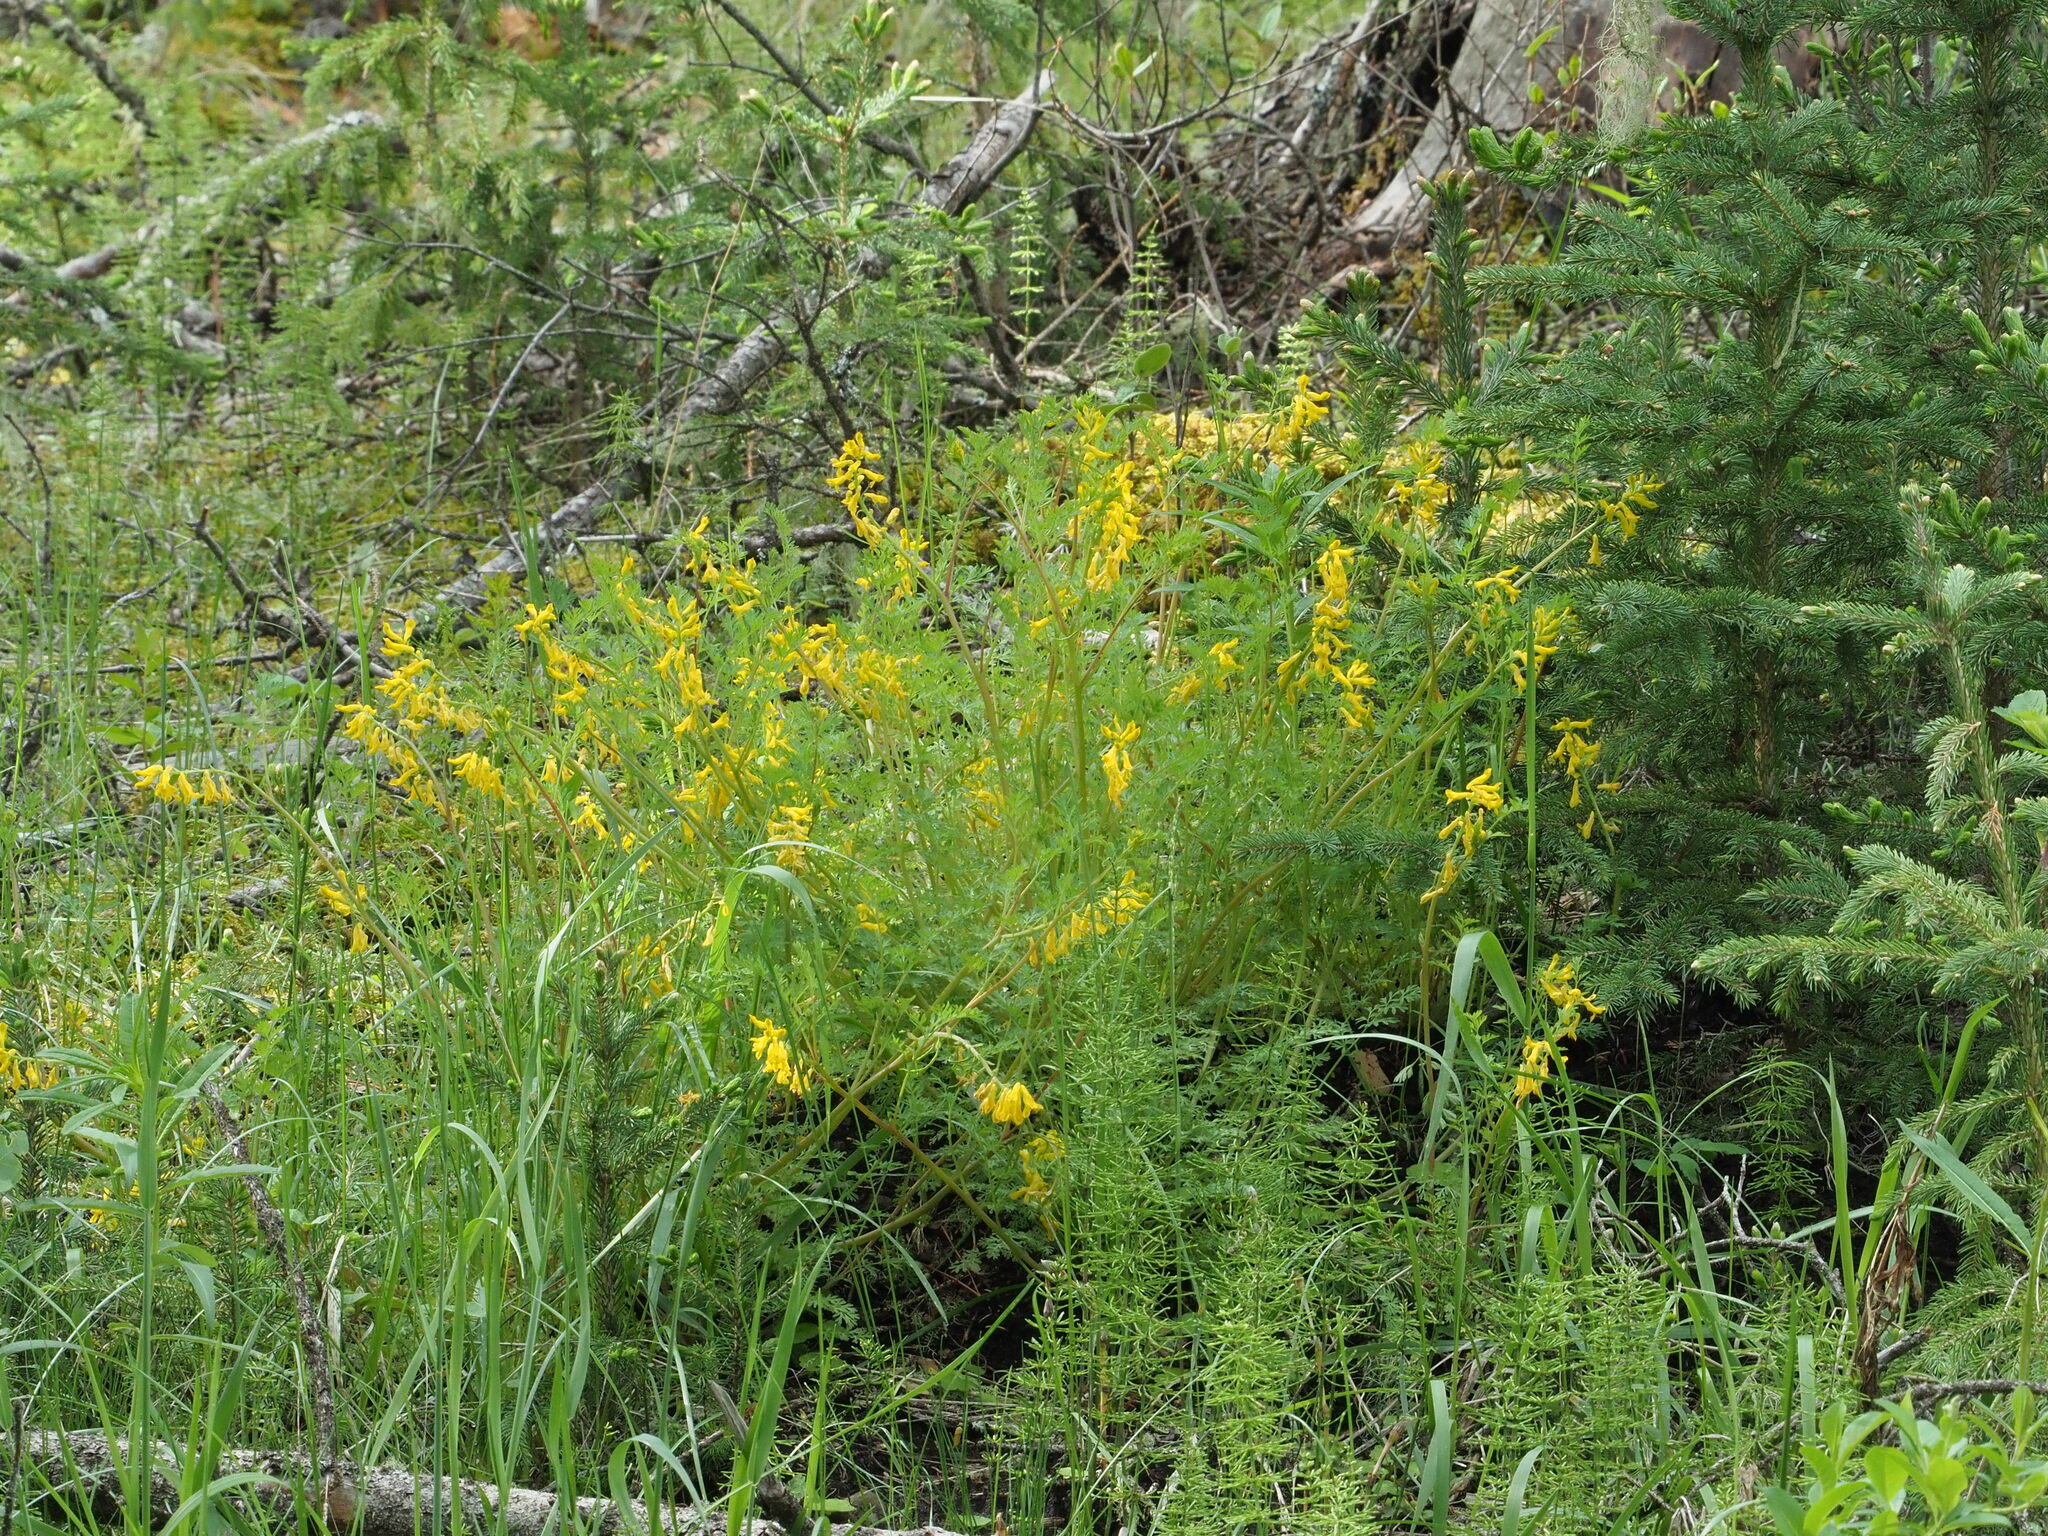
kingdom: Plantae
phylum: Tracheophyta
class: Magnoliopsida
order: Ranunculales
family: Papaveraceae
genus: Corydalis
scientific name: Corydalis aurea
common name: Golden corydalis
